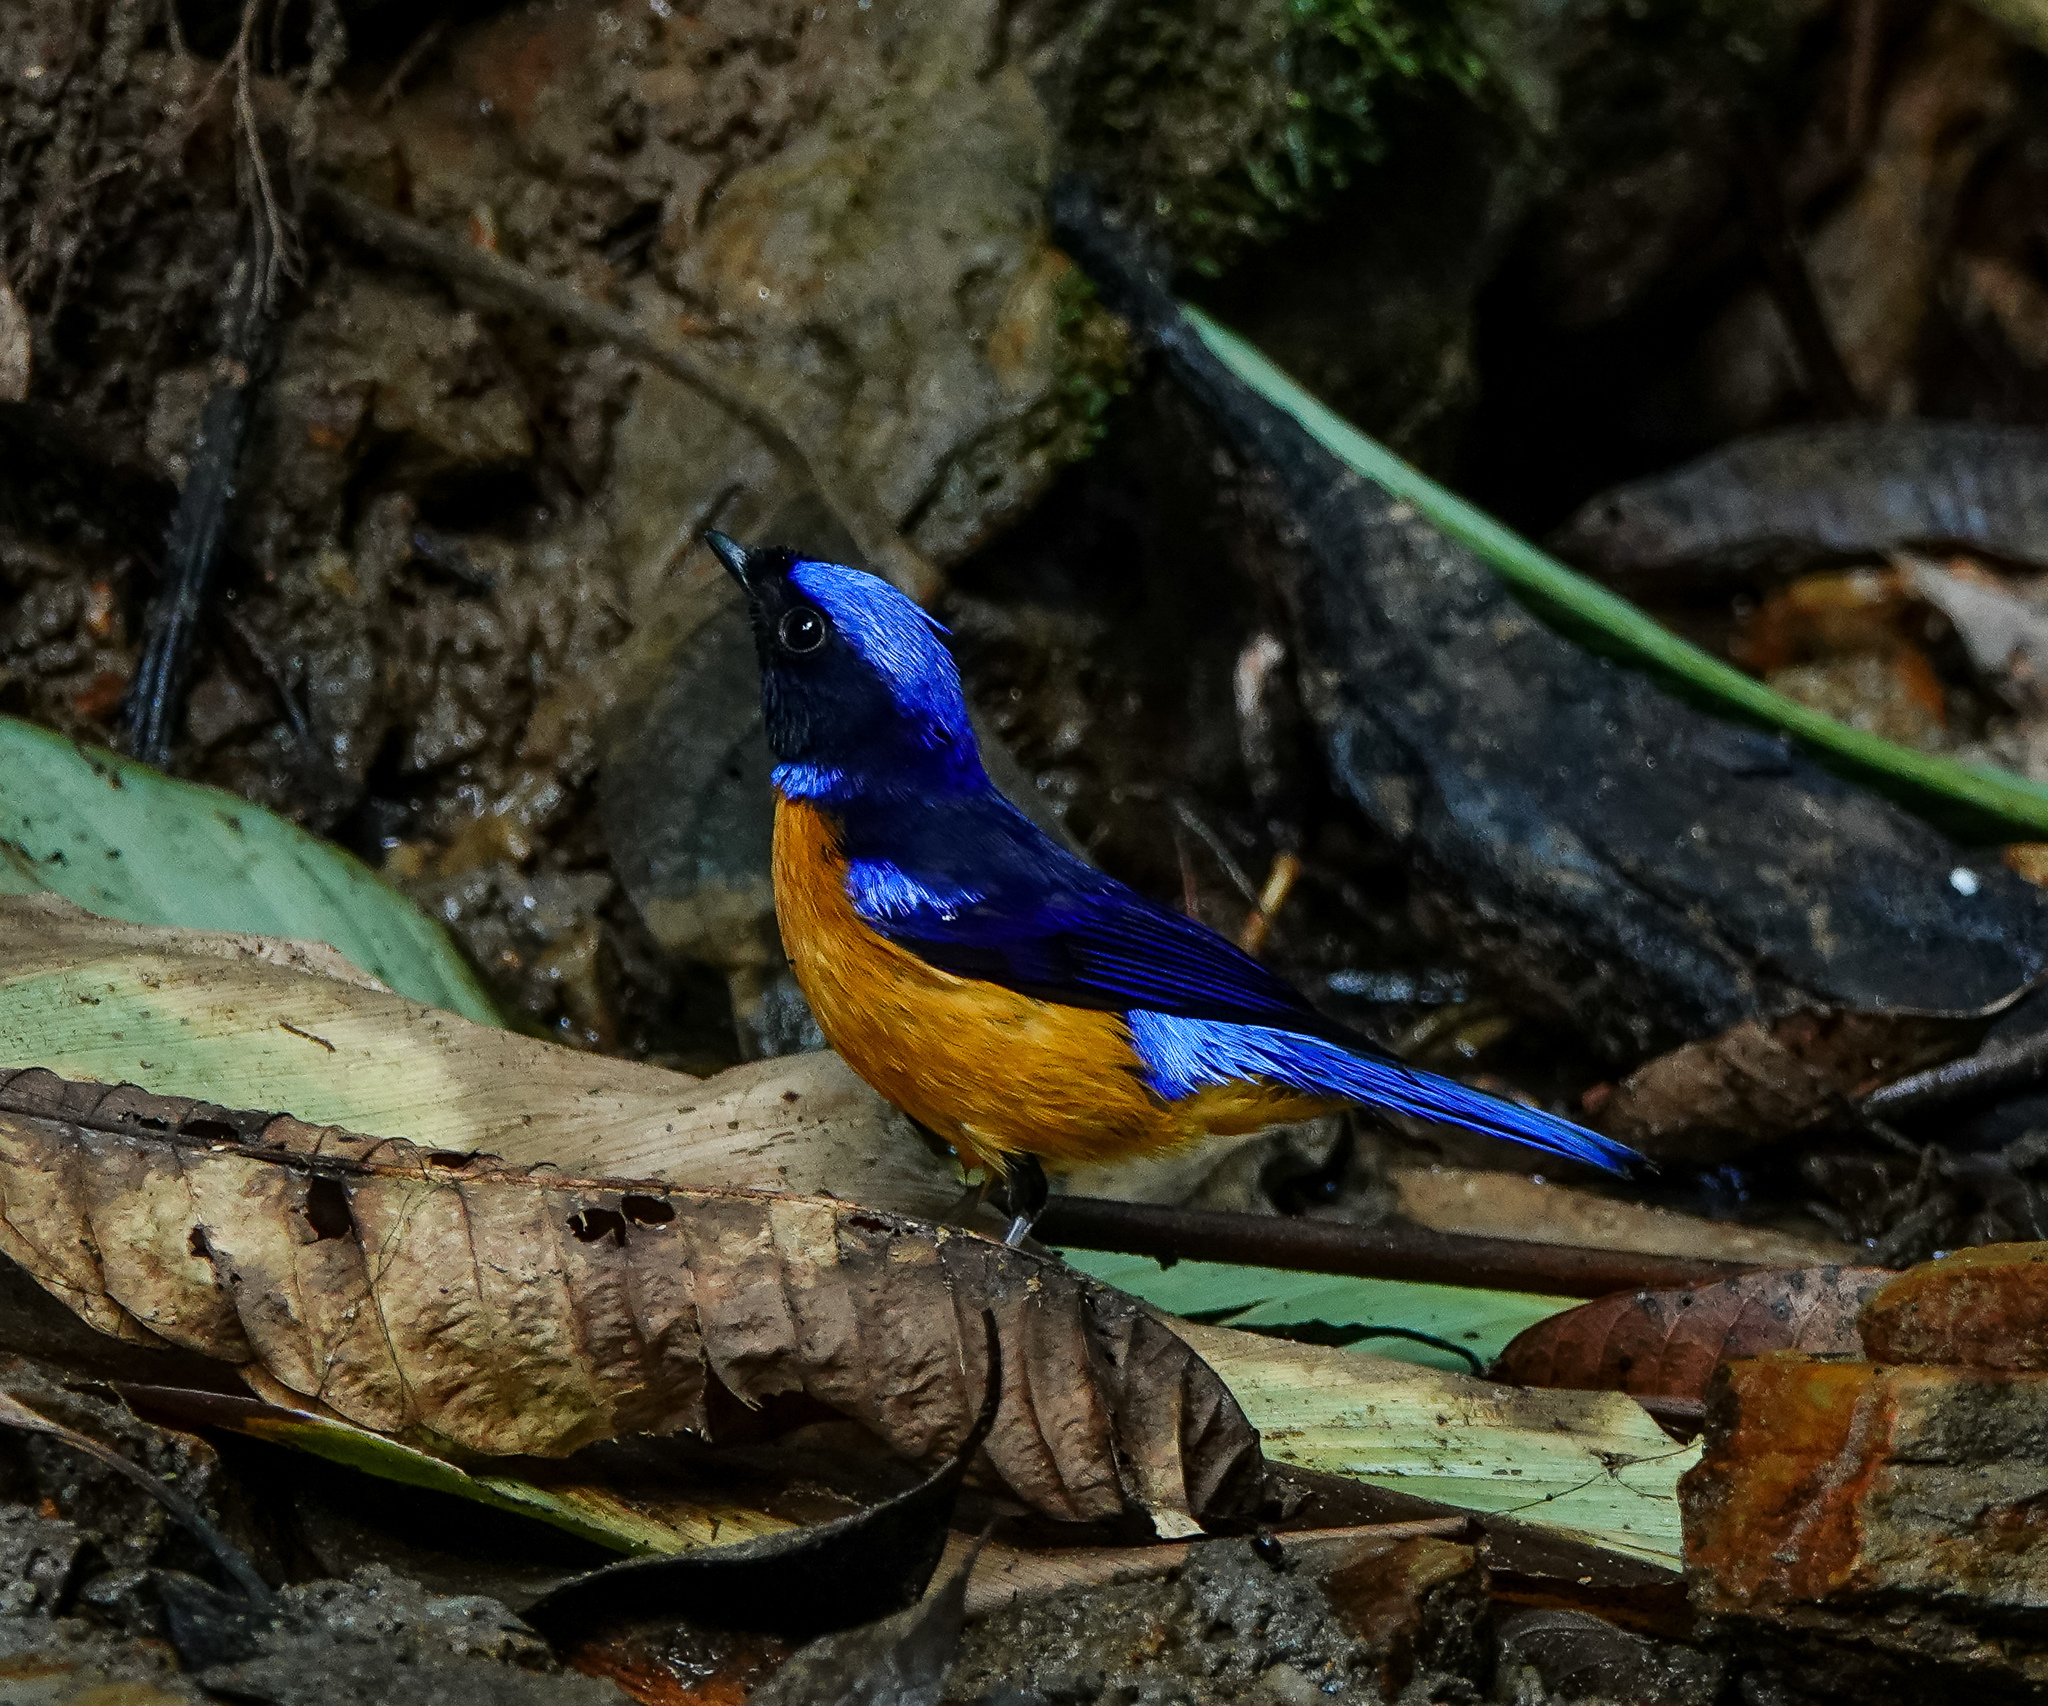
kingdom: Animalia
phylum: Chordata
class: Aves
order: Passeriformes
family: Muscicapidae
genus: Niltava
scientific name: Niltava sundara
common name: Rufous-bellied niltava
